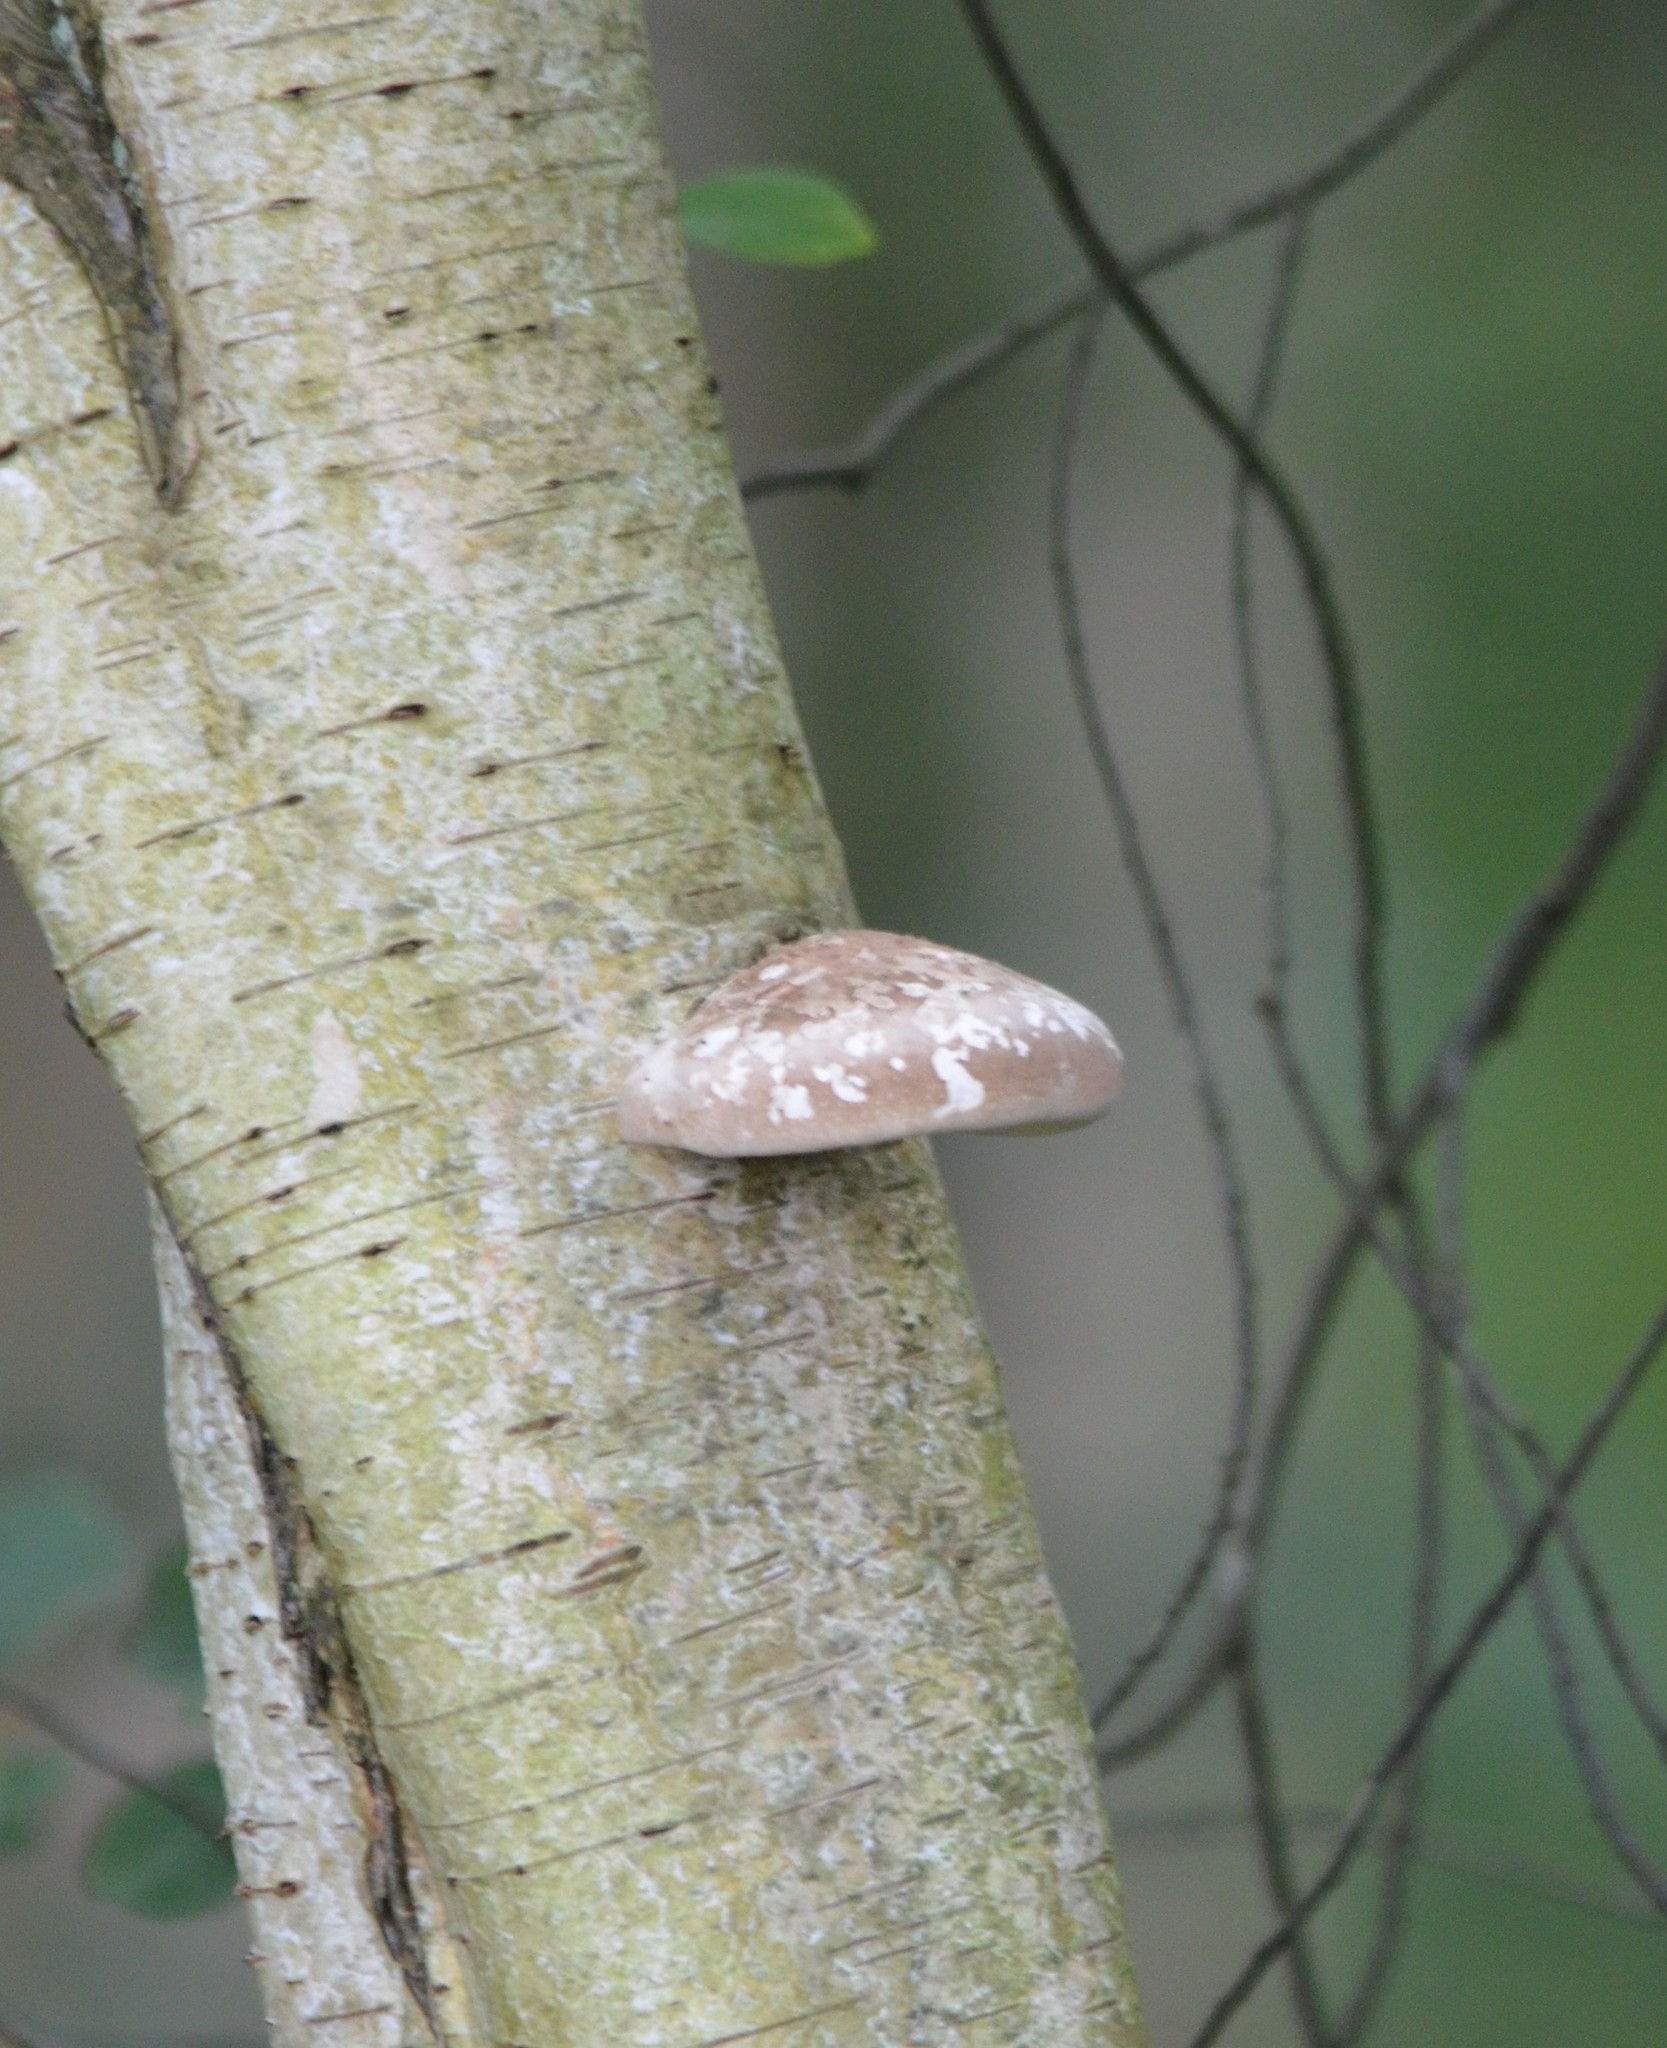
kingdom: Fungi
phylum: Basidiomycota
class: Agaricomycetes
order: Polyporales
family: Fomitopsidaceae
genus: Fomitopsis
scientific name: Fomitopsis betulina
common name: Birch polypore
